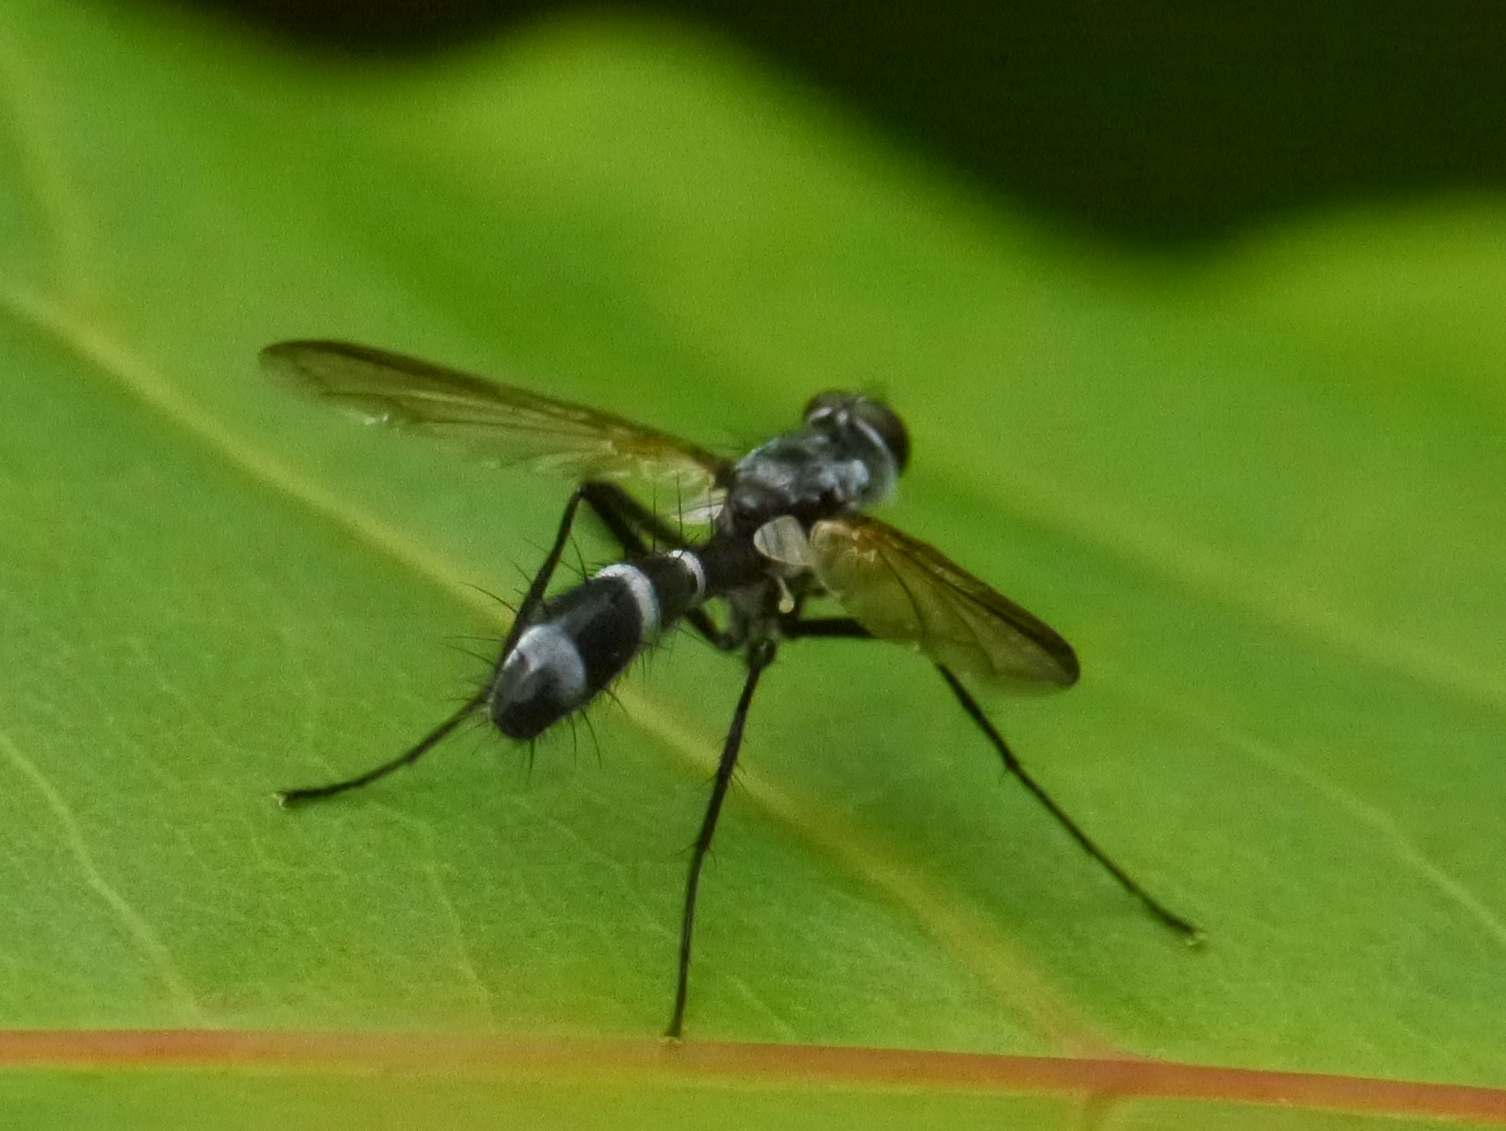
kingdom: Animalia
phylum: Arthropoda
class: Insecta
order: Diptera
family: Tachinidae
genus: Cordyligaster
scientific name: Cordyligaster septentrionalis
